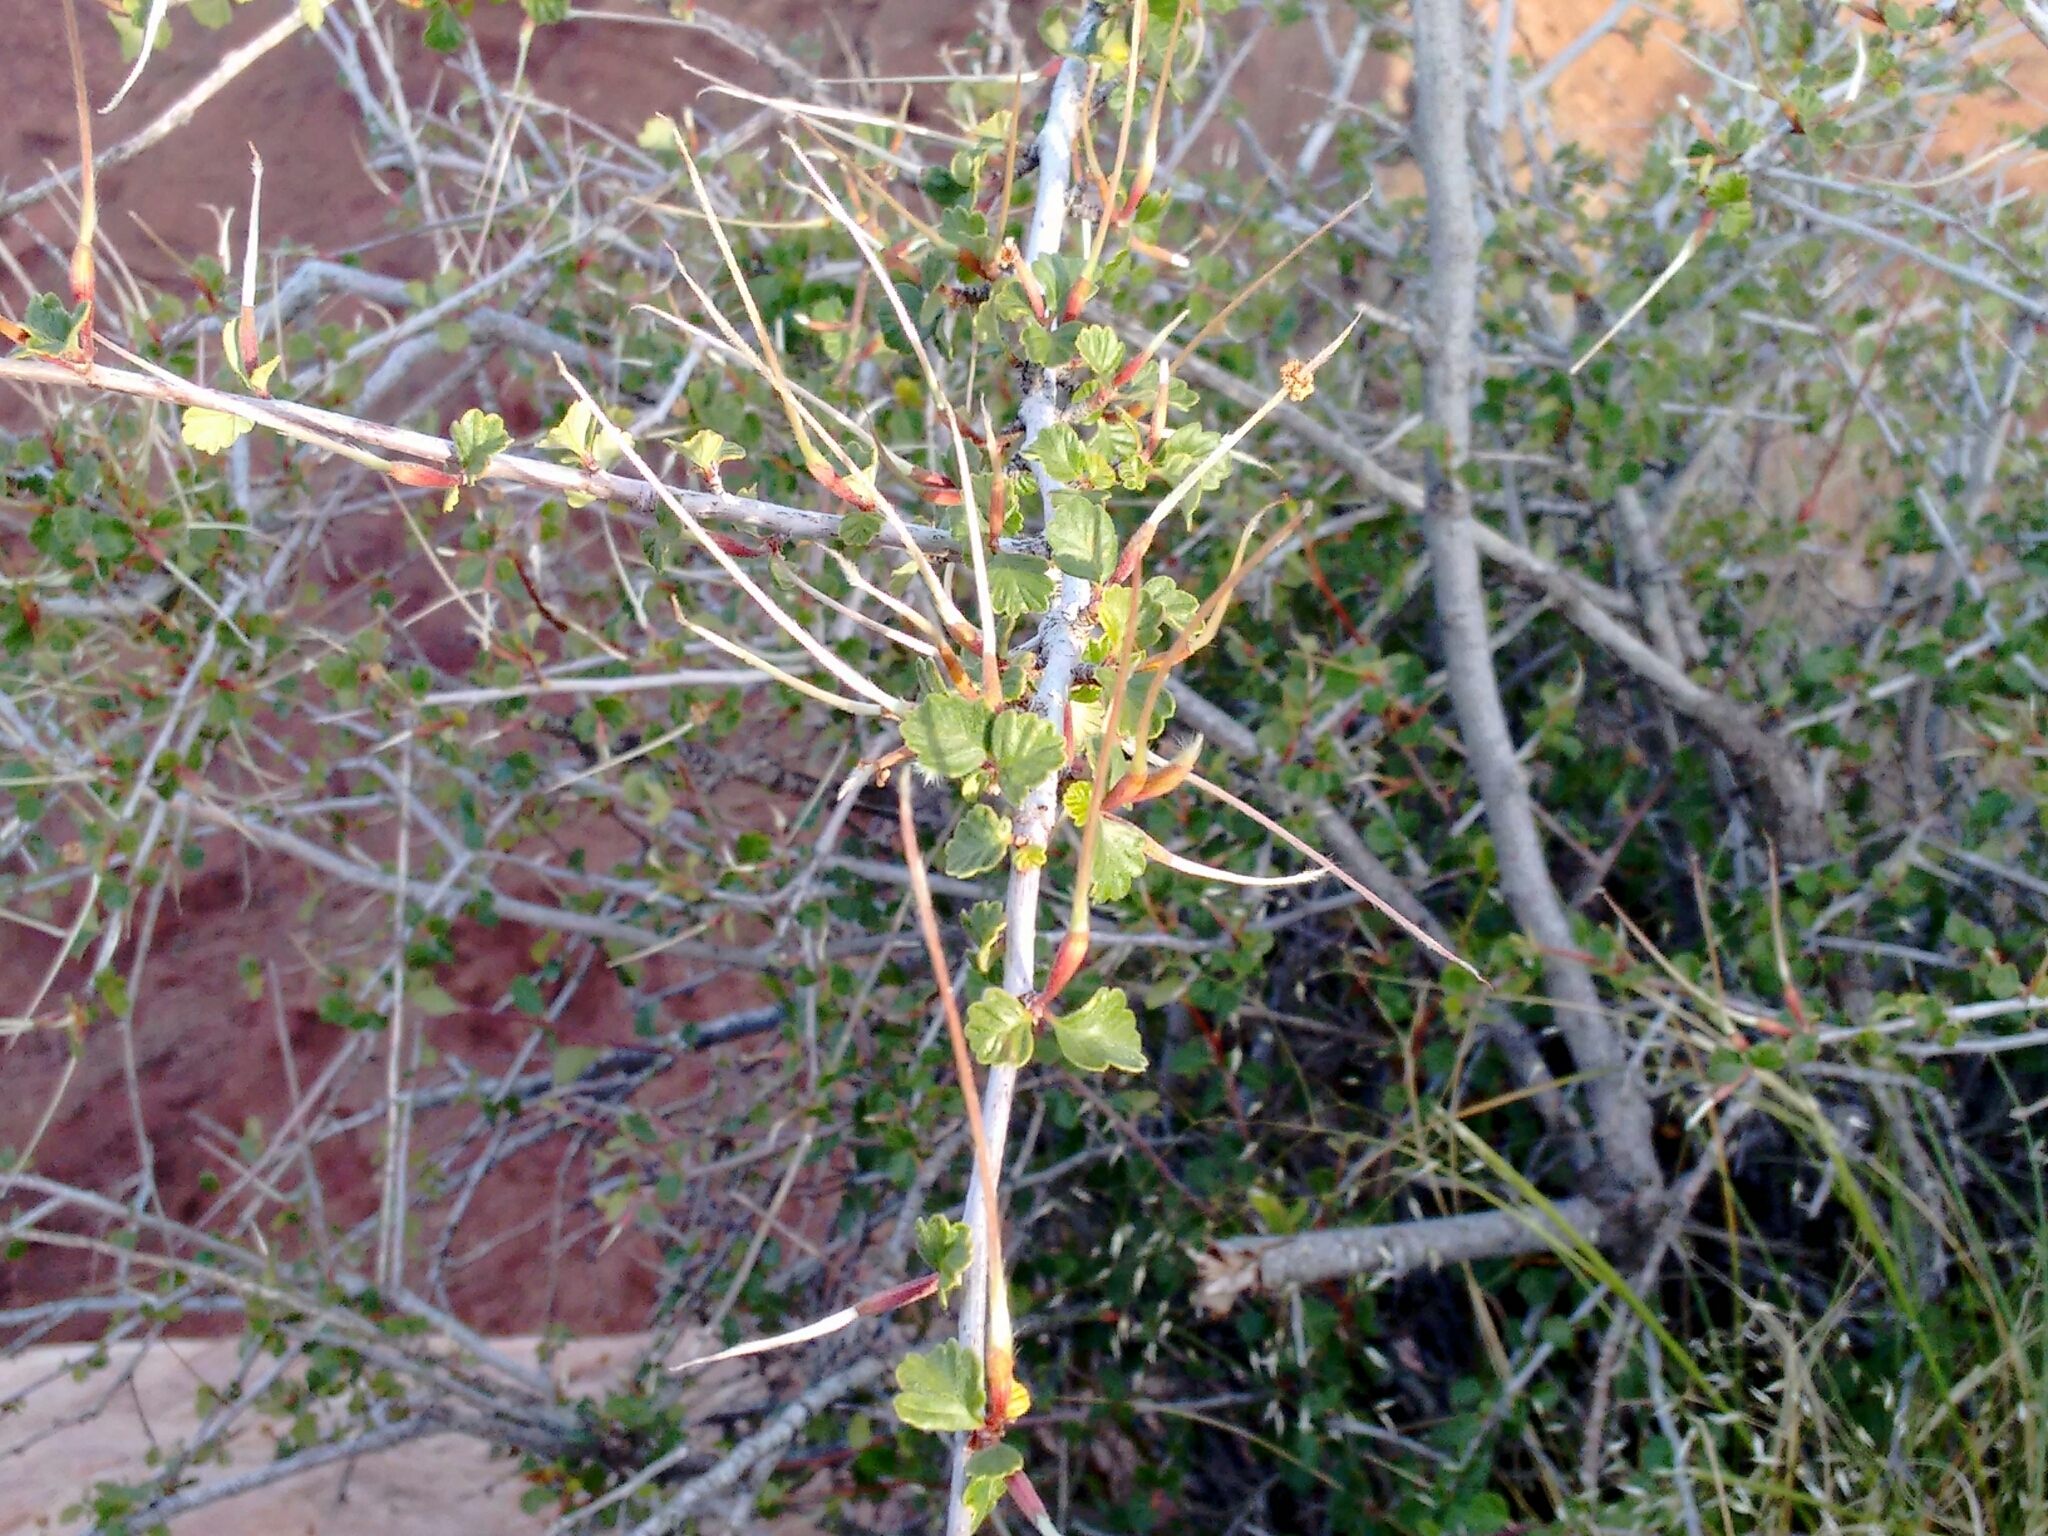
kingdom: Plantae
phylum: Tracheophyta
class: Magnoliopsida
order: Rosales
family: Rosaceae
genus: Cercocarpus
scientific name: Cercocarpus montanus
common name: Alder-leaf cercocarpus
